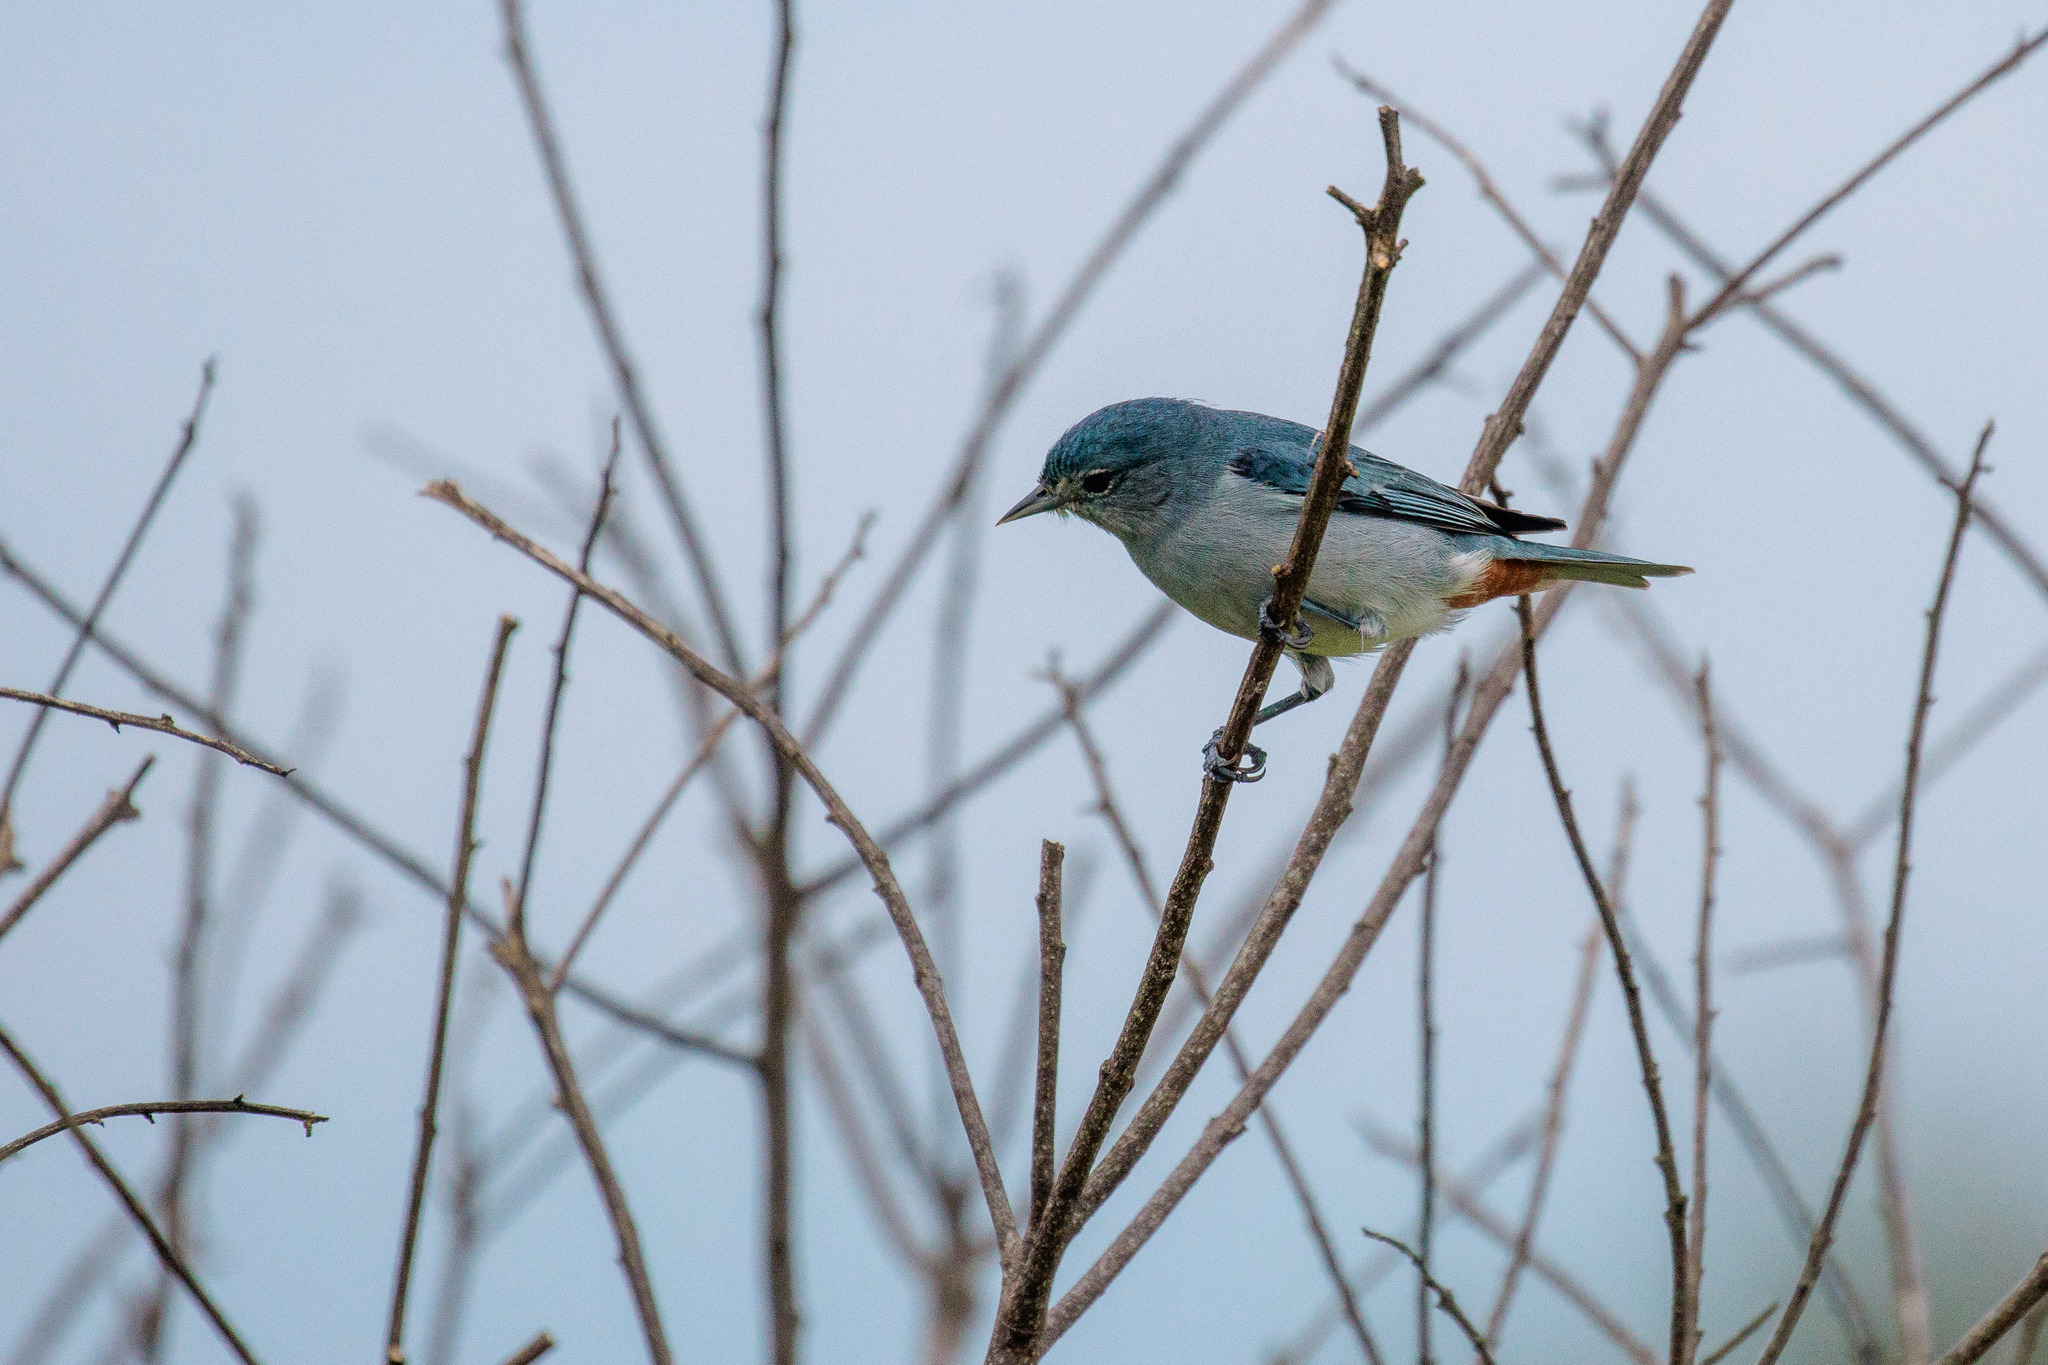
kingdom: Animalia
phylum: Chordata
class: Aves
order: Passeriformes
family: Thraupidae
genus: Conirostrum
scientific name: Conirostrum speciosum
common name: Chestnut-vented conebill
